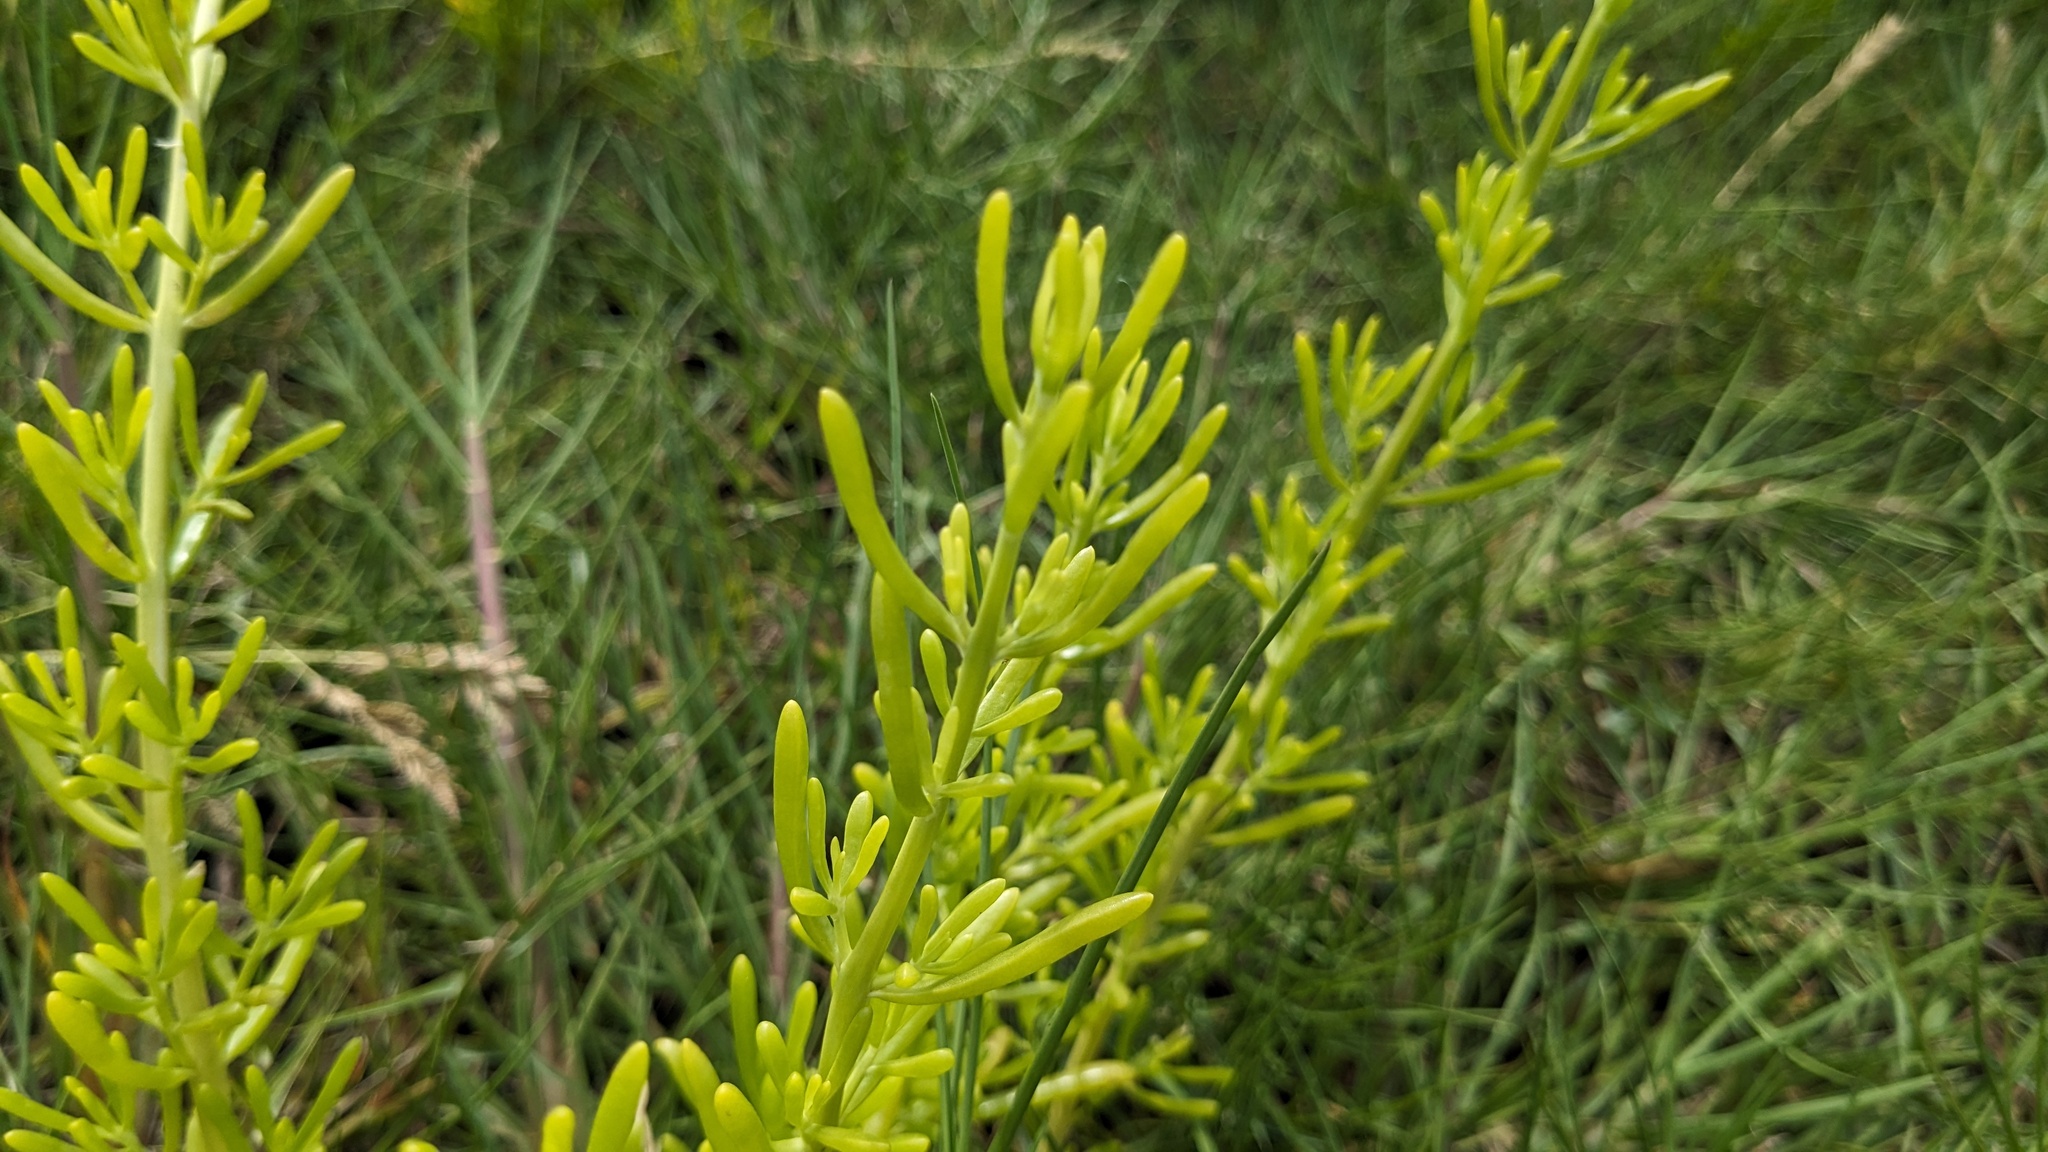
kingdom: Plantae
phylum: Tracheophyta
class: Magnoliopsida
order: Brassicales
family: Bataceae
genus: Batis
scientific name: Batis maritima
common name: Turtleweed
